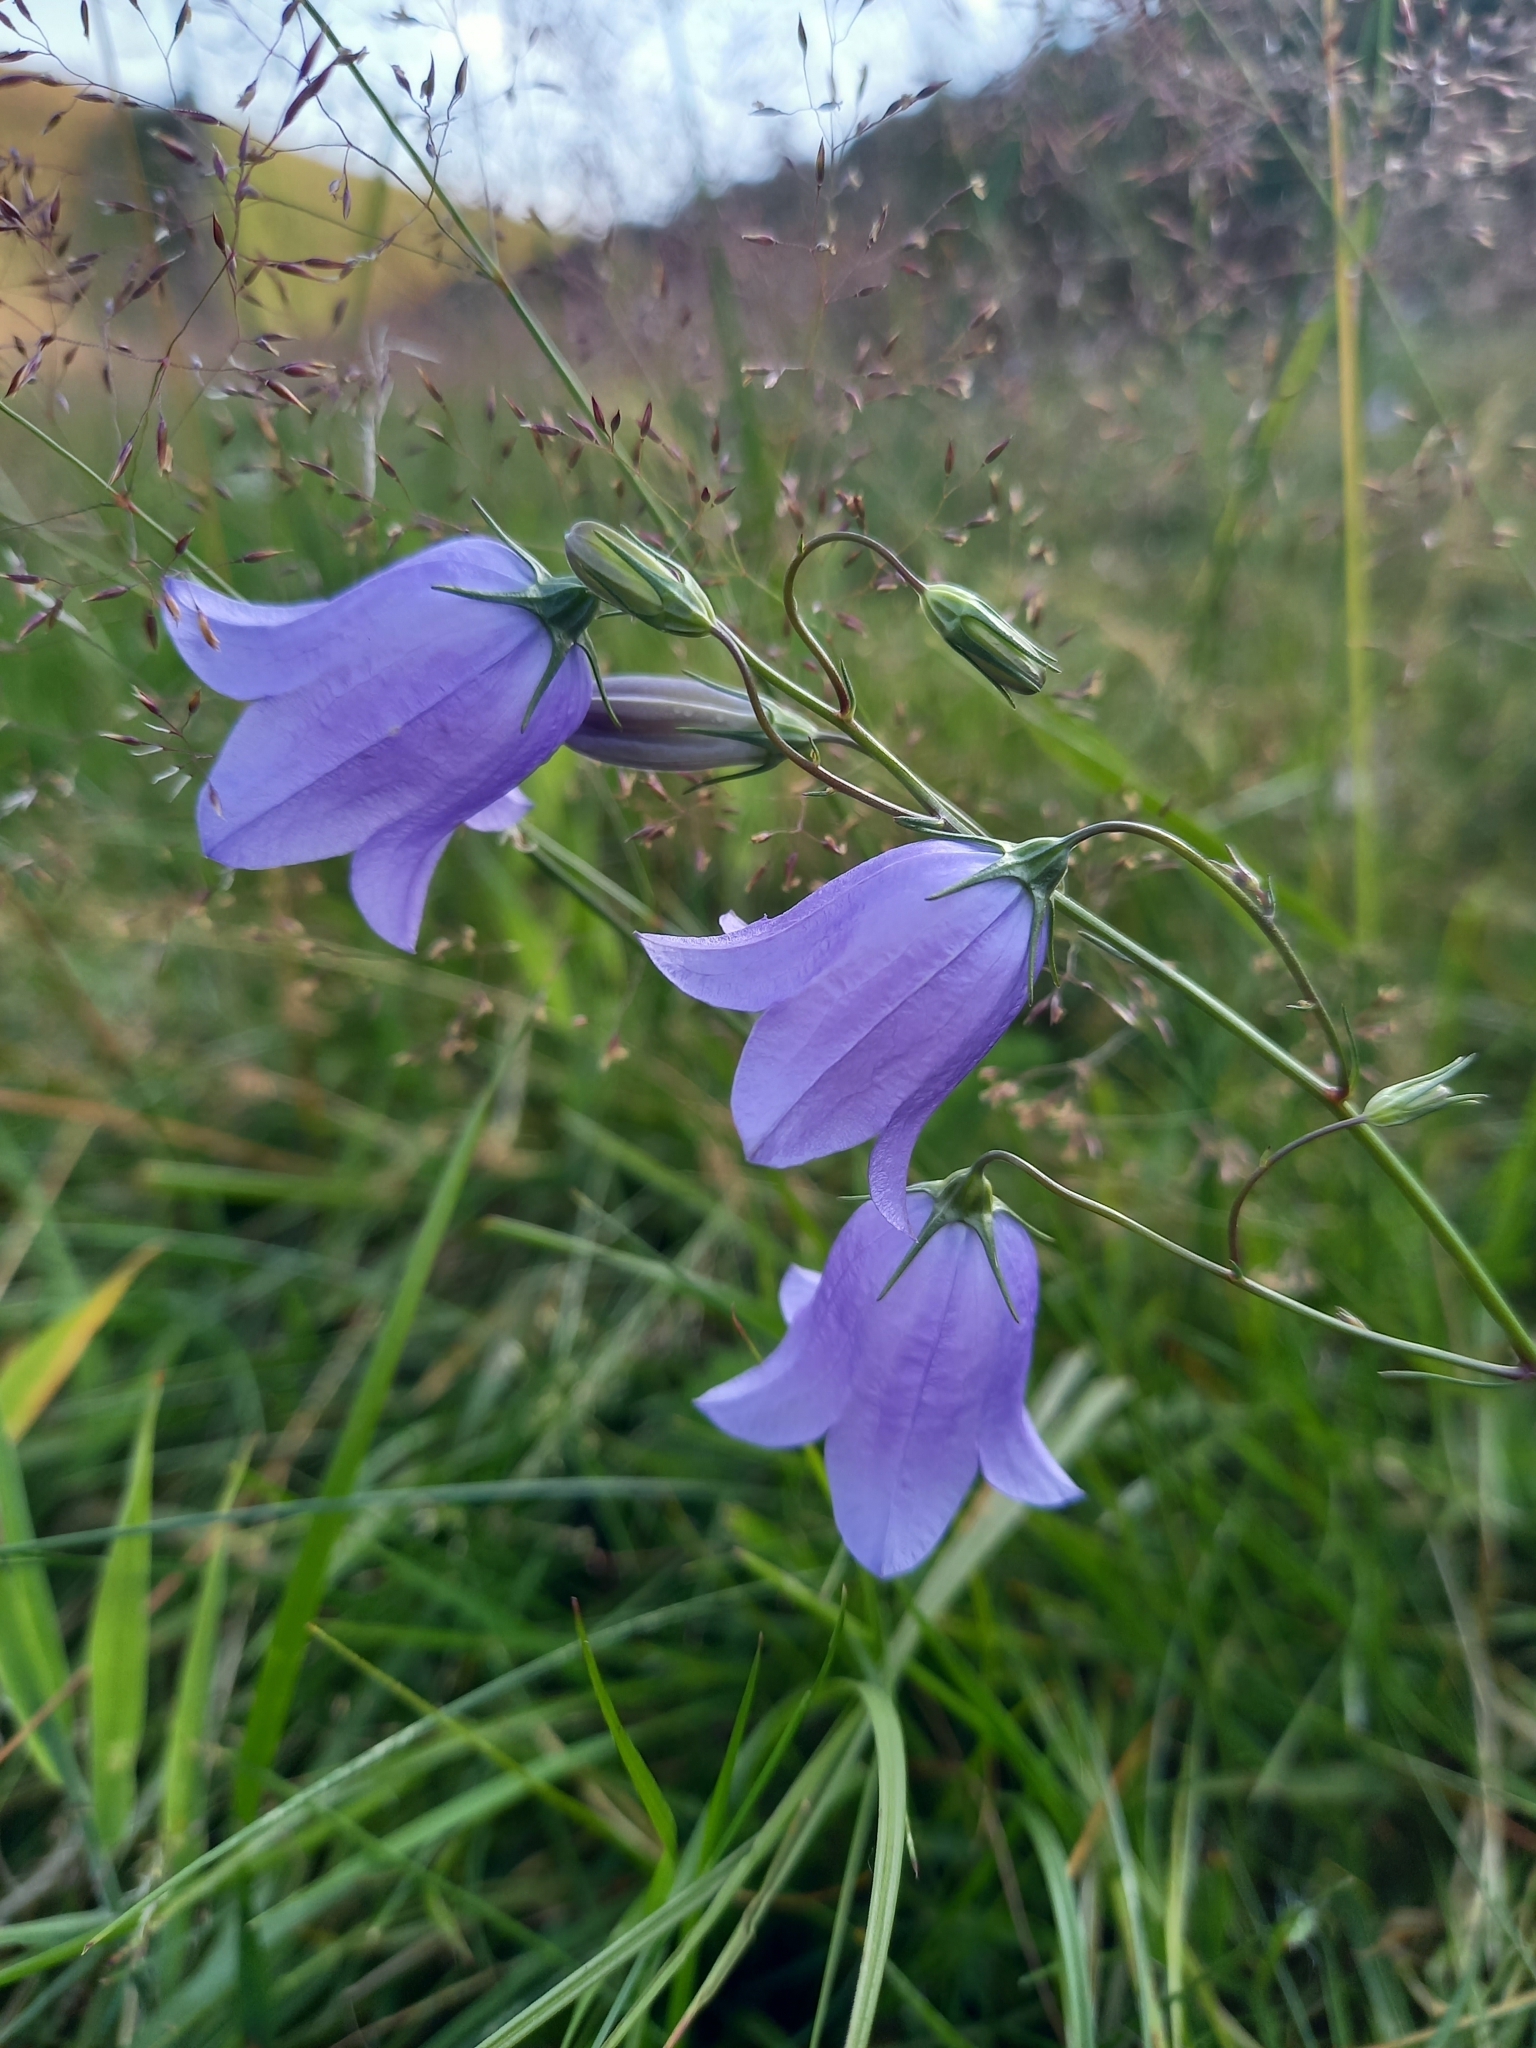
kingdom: Plantae
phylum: Tracheophyta
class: Magnoliopsida
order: Asterales
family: Campanulaceae
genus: Campanula
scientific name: Campanula rotundifolia
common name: Harebell
